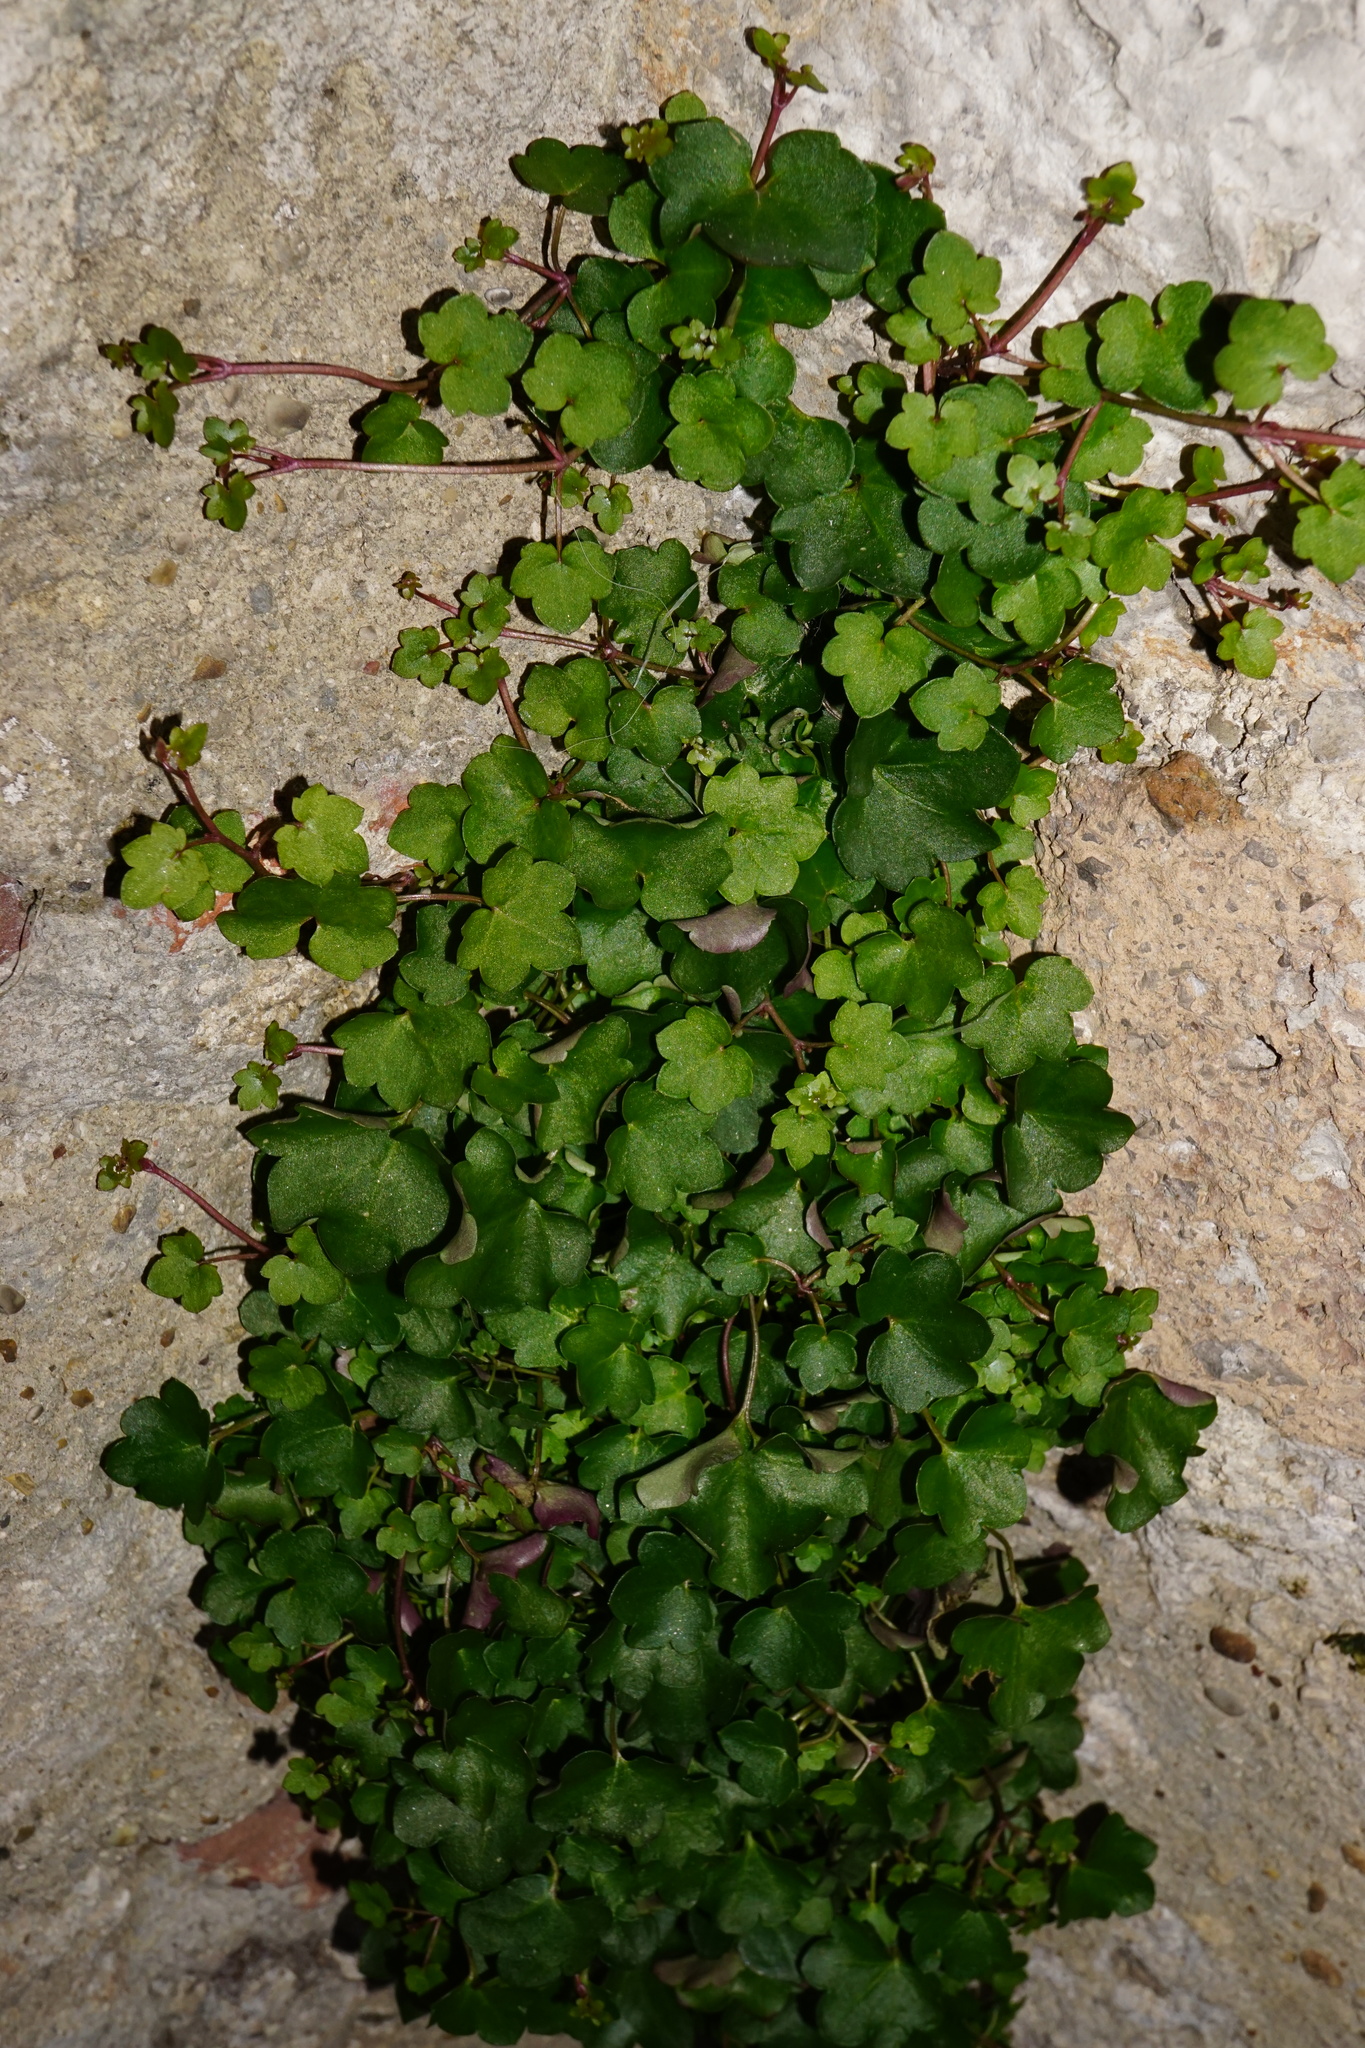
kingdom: Plantae
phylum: Tracheophyta
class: Magnoliopsida
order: Lamiales
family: Plantaginaceae
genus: Cymbalaria
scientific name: Cymbalaria muralis
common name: Ivy-leaved toadflax
